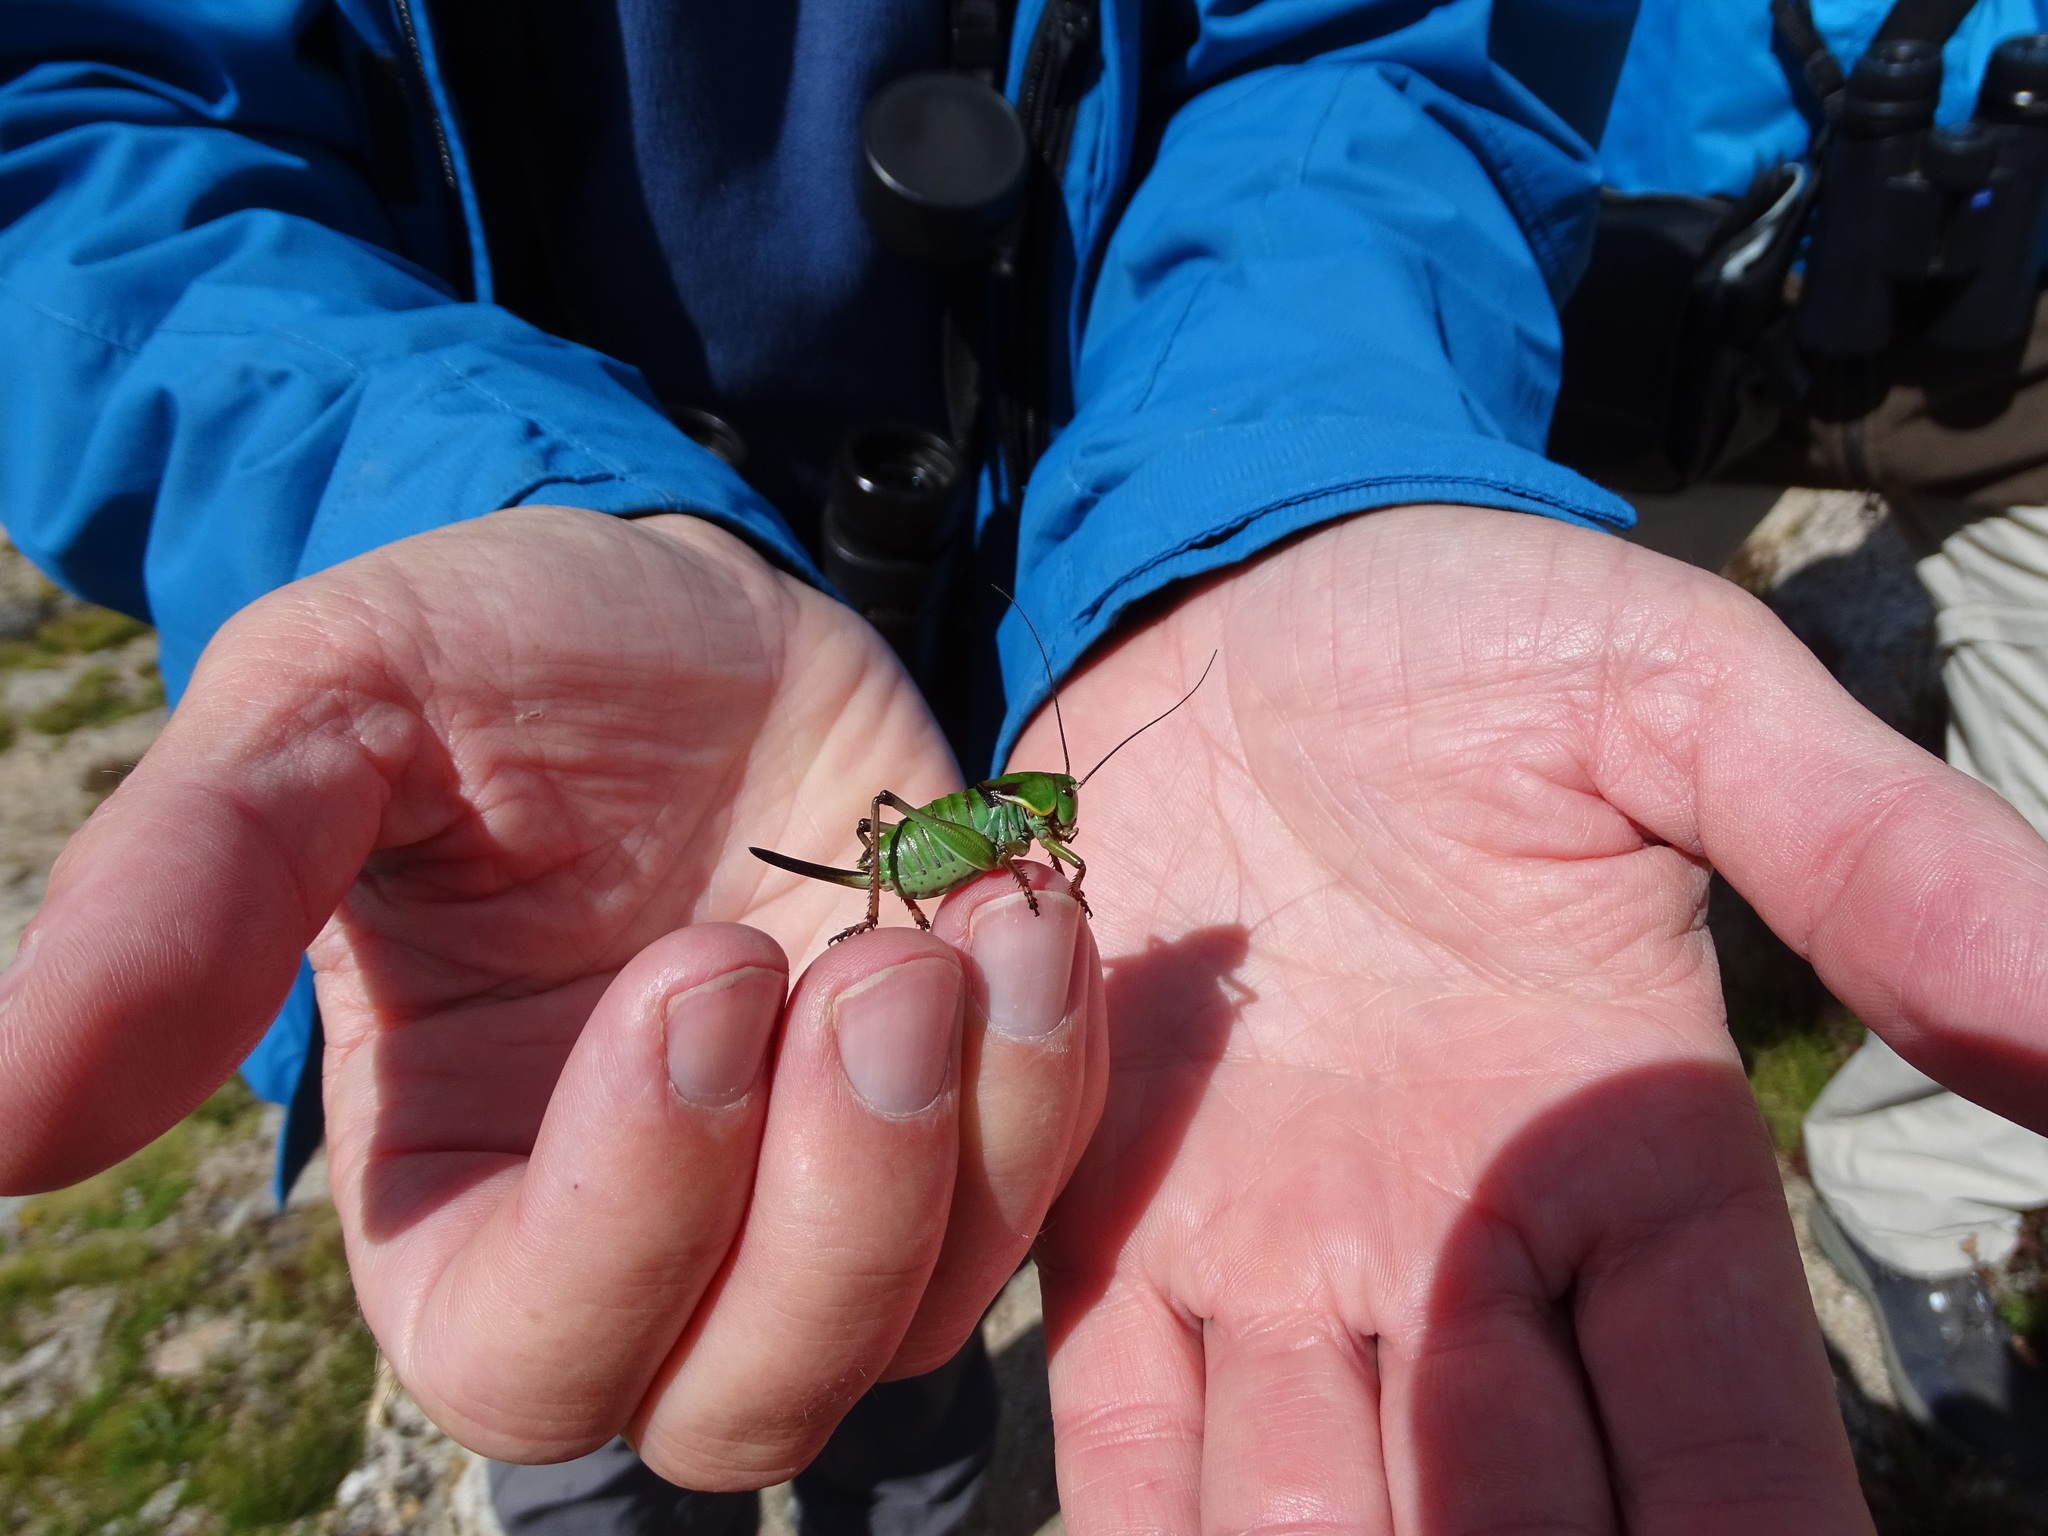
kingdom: Animalia
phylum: Arthropoda
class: Insecta
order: Orthoptera
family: Tettigoniidae
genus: Anabrus
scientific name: Anabrus simplex
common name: Mormon cricket
